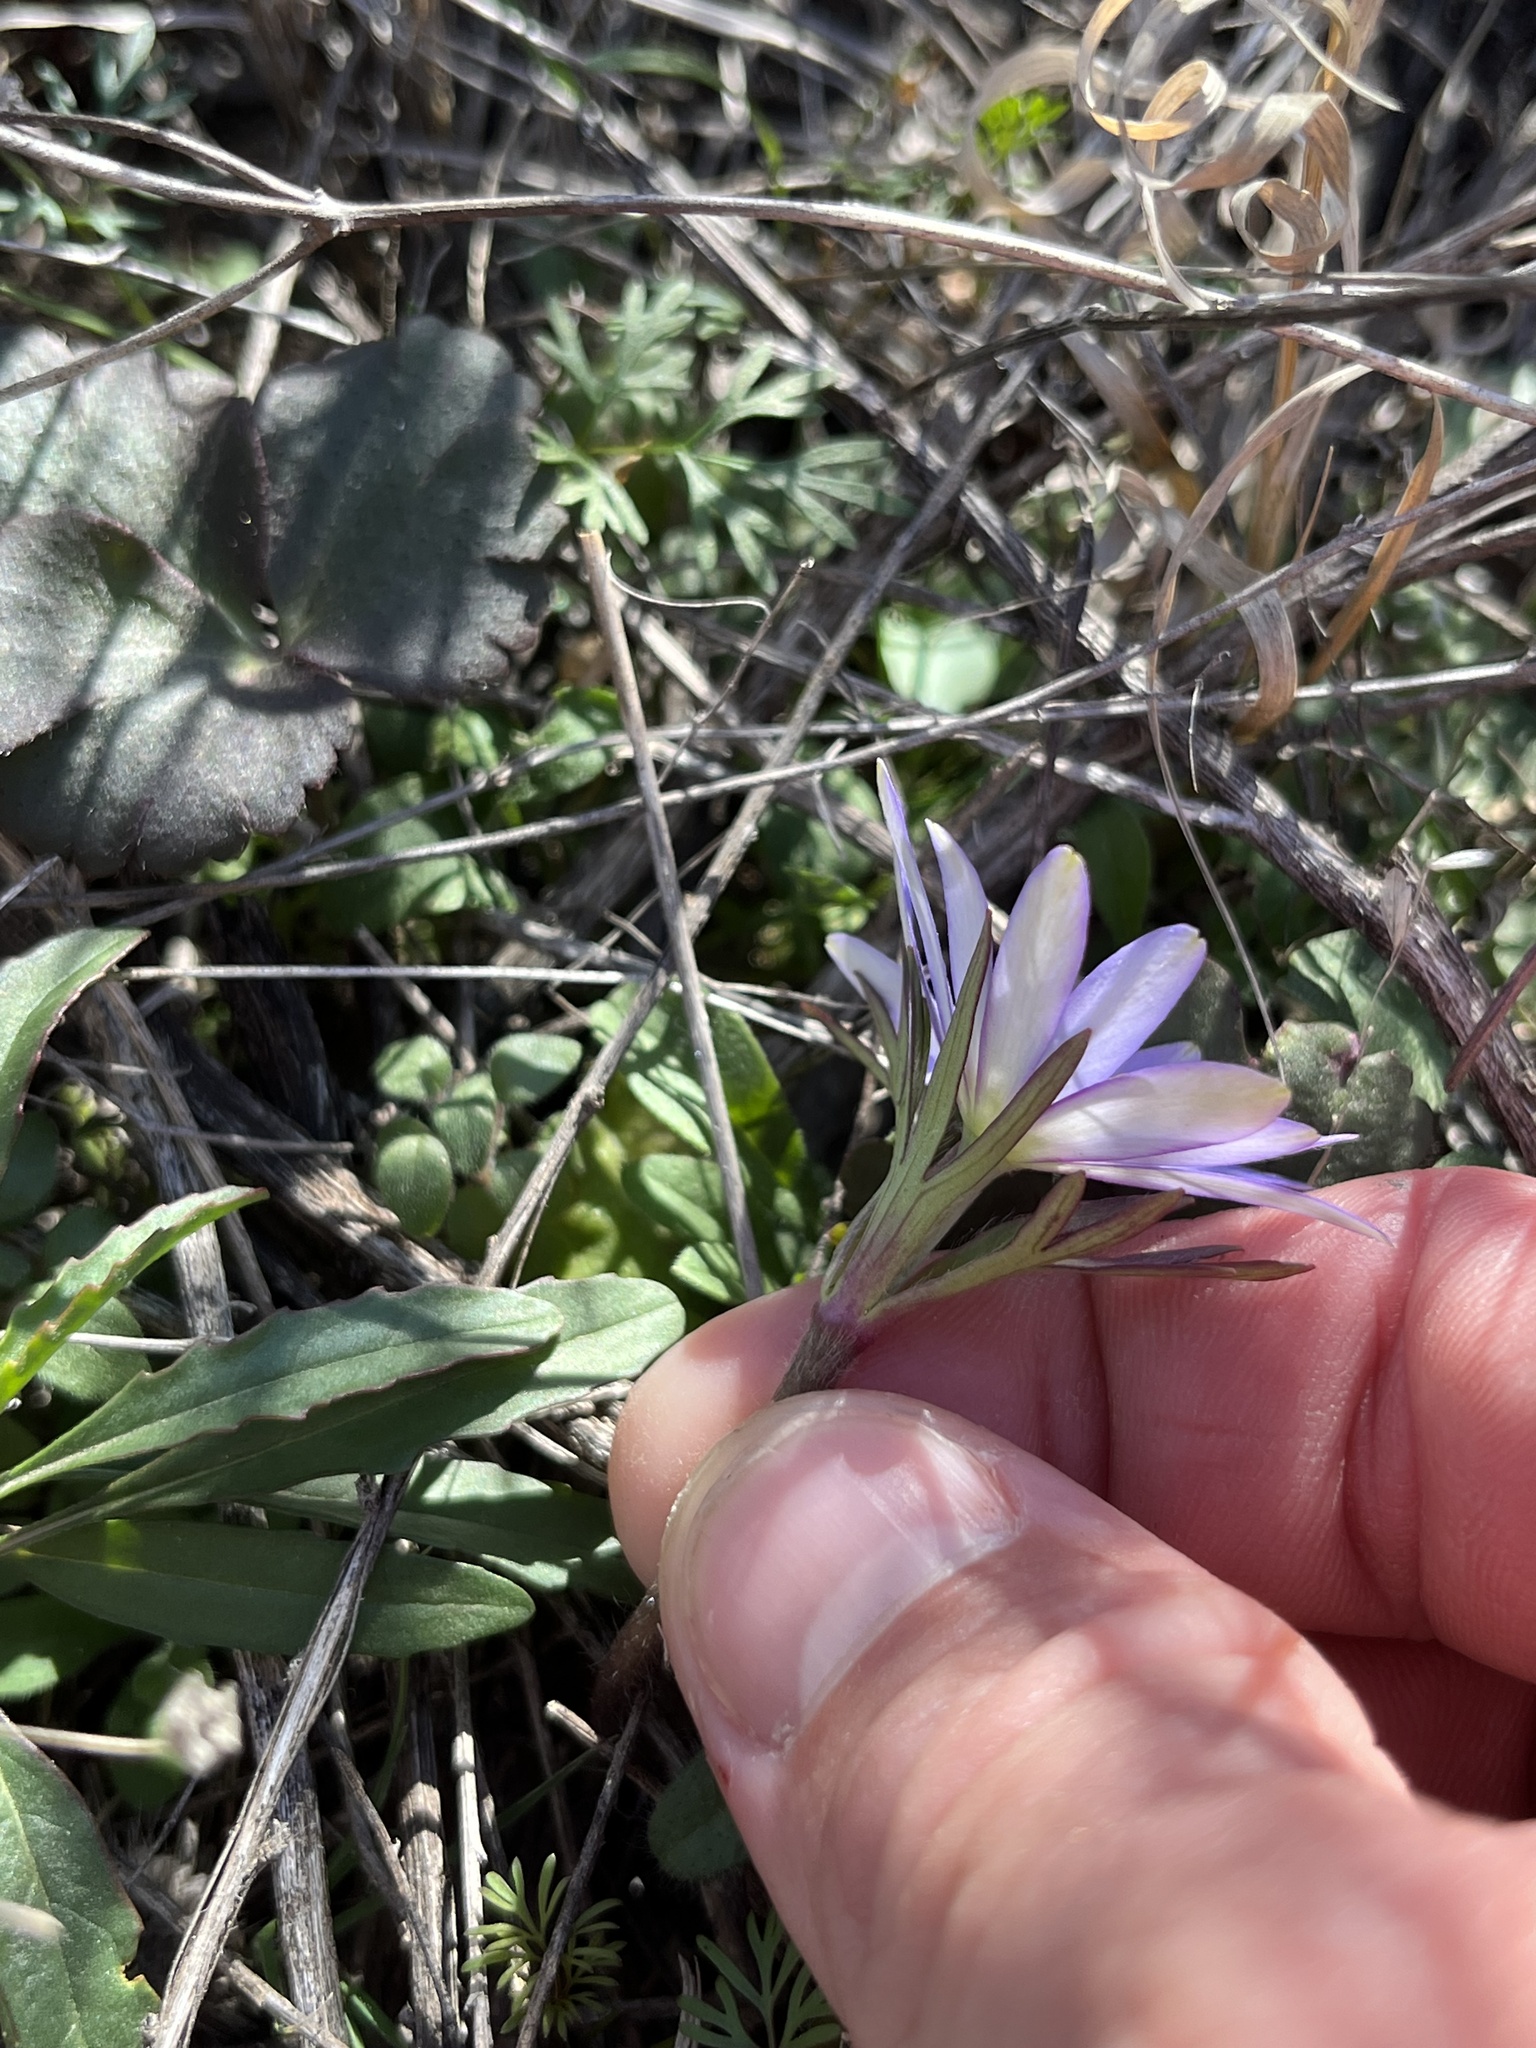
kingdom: Plantae
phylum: Tracheophyta
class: Magnoliopsida
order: Ranunculales
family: Ranunculaceae
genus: Anemone
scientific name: Anemone berlandieri
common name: Ten-petal anemone
